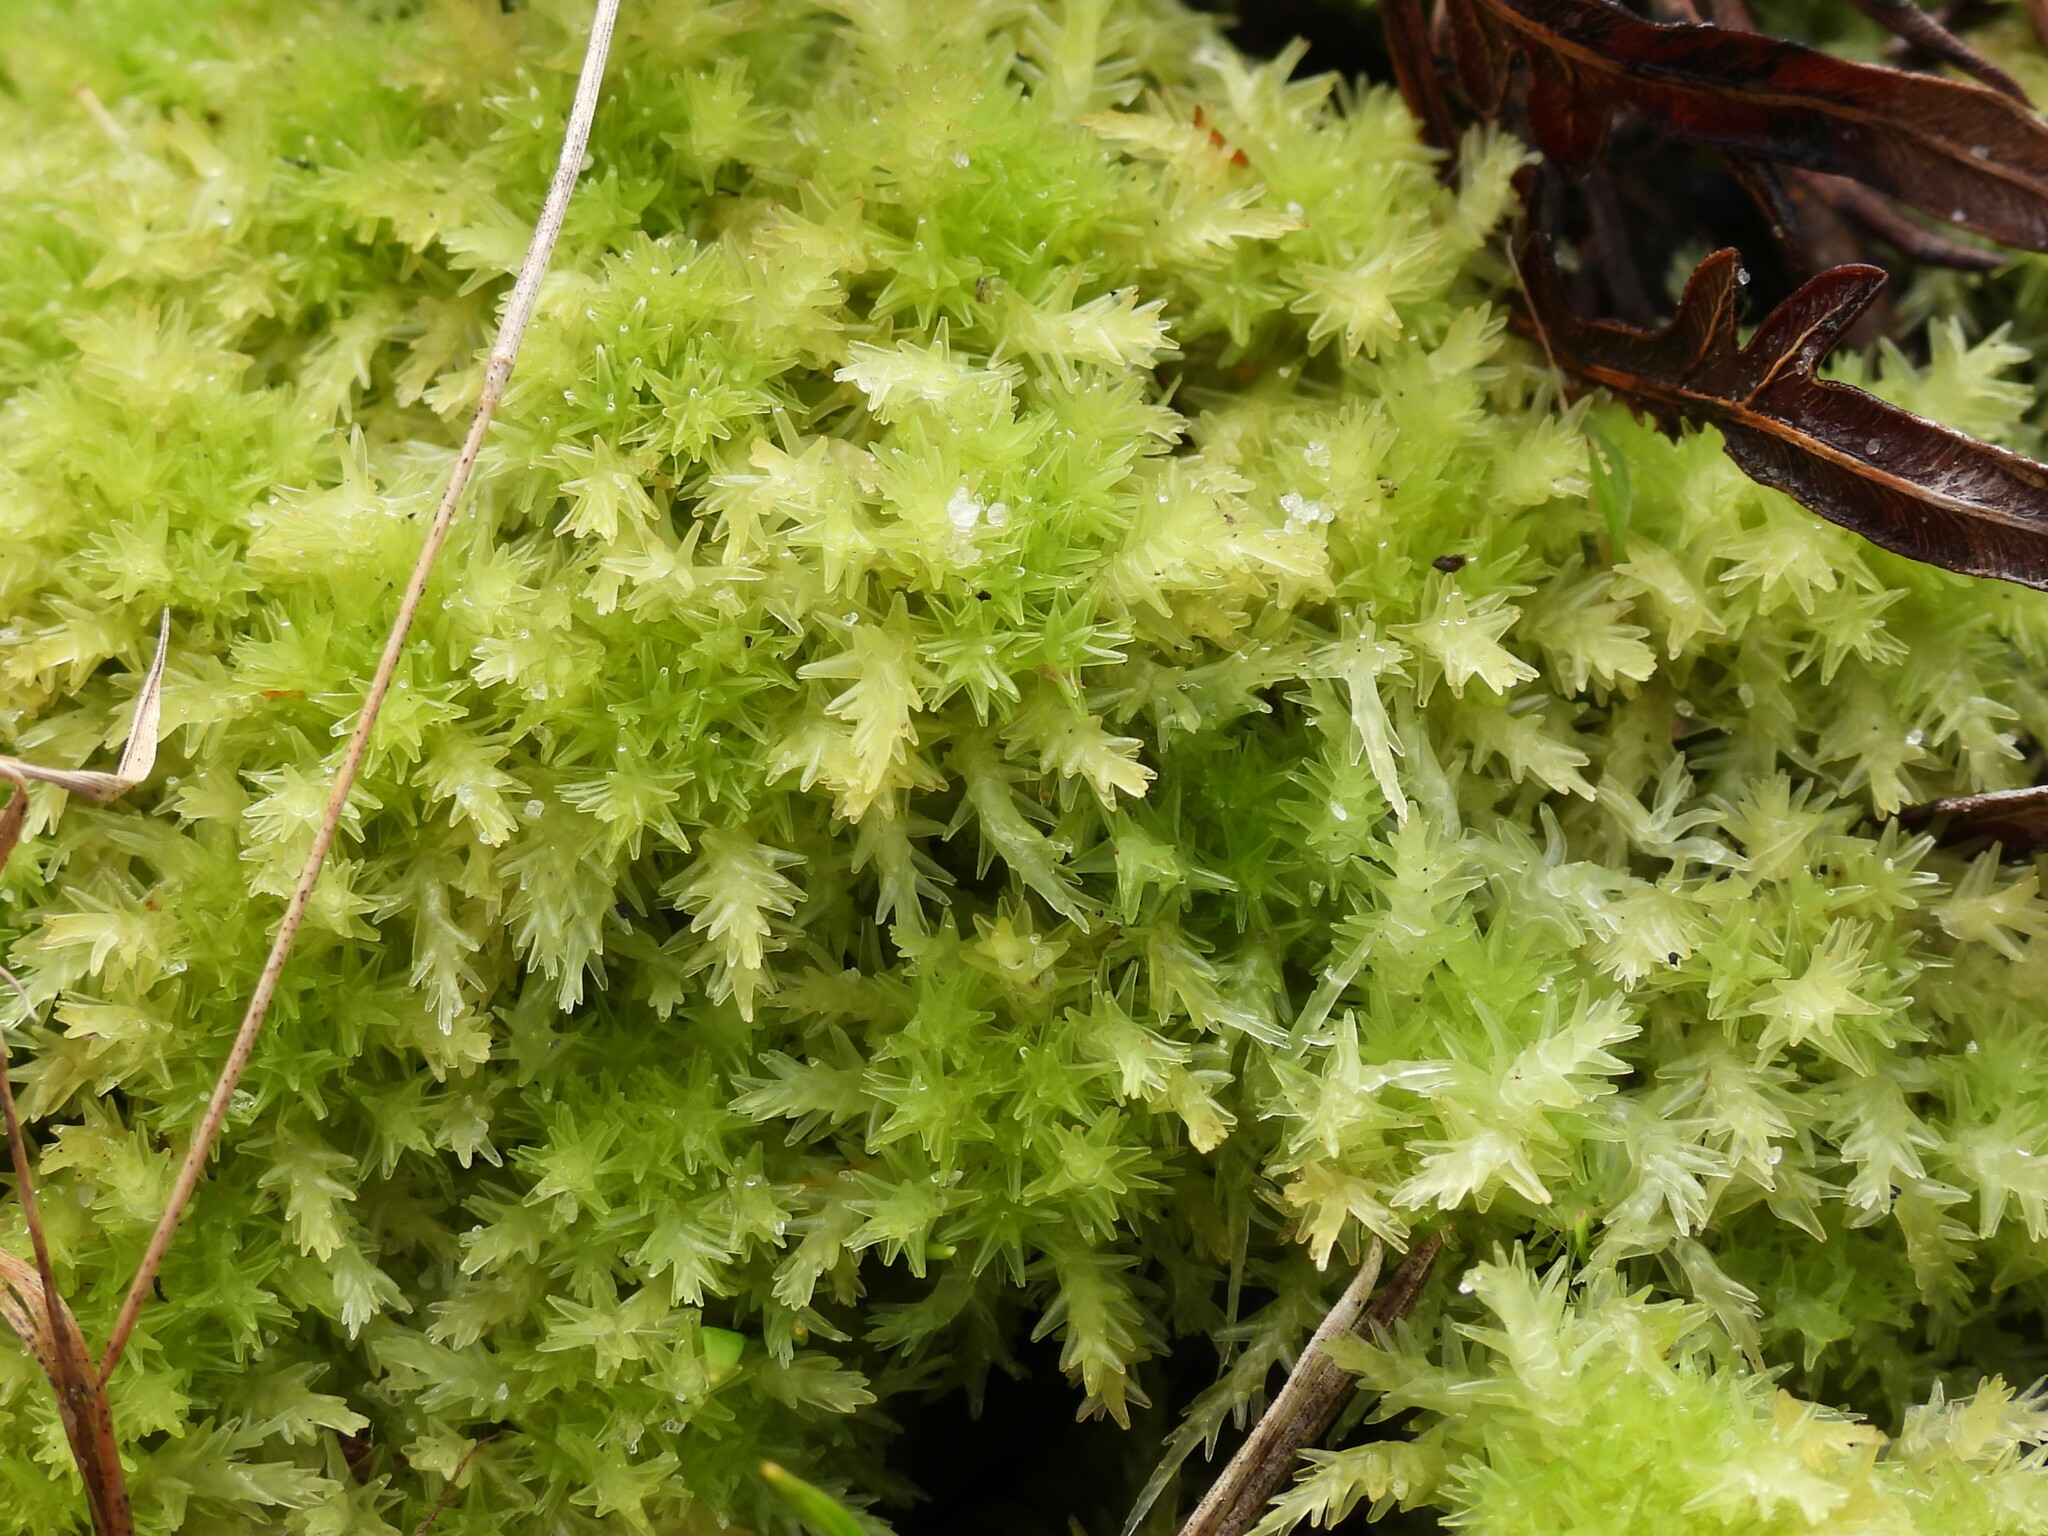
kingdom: Plantae
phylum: Bryophyta
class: Sphagnopsida
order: Sphagnales
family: Sphagnaceae
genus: Sphagnum
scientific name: Sphagnum strictum
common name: Pale bog-moss
